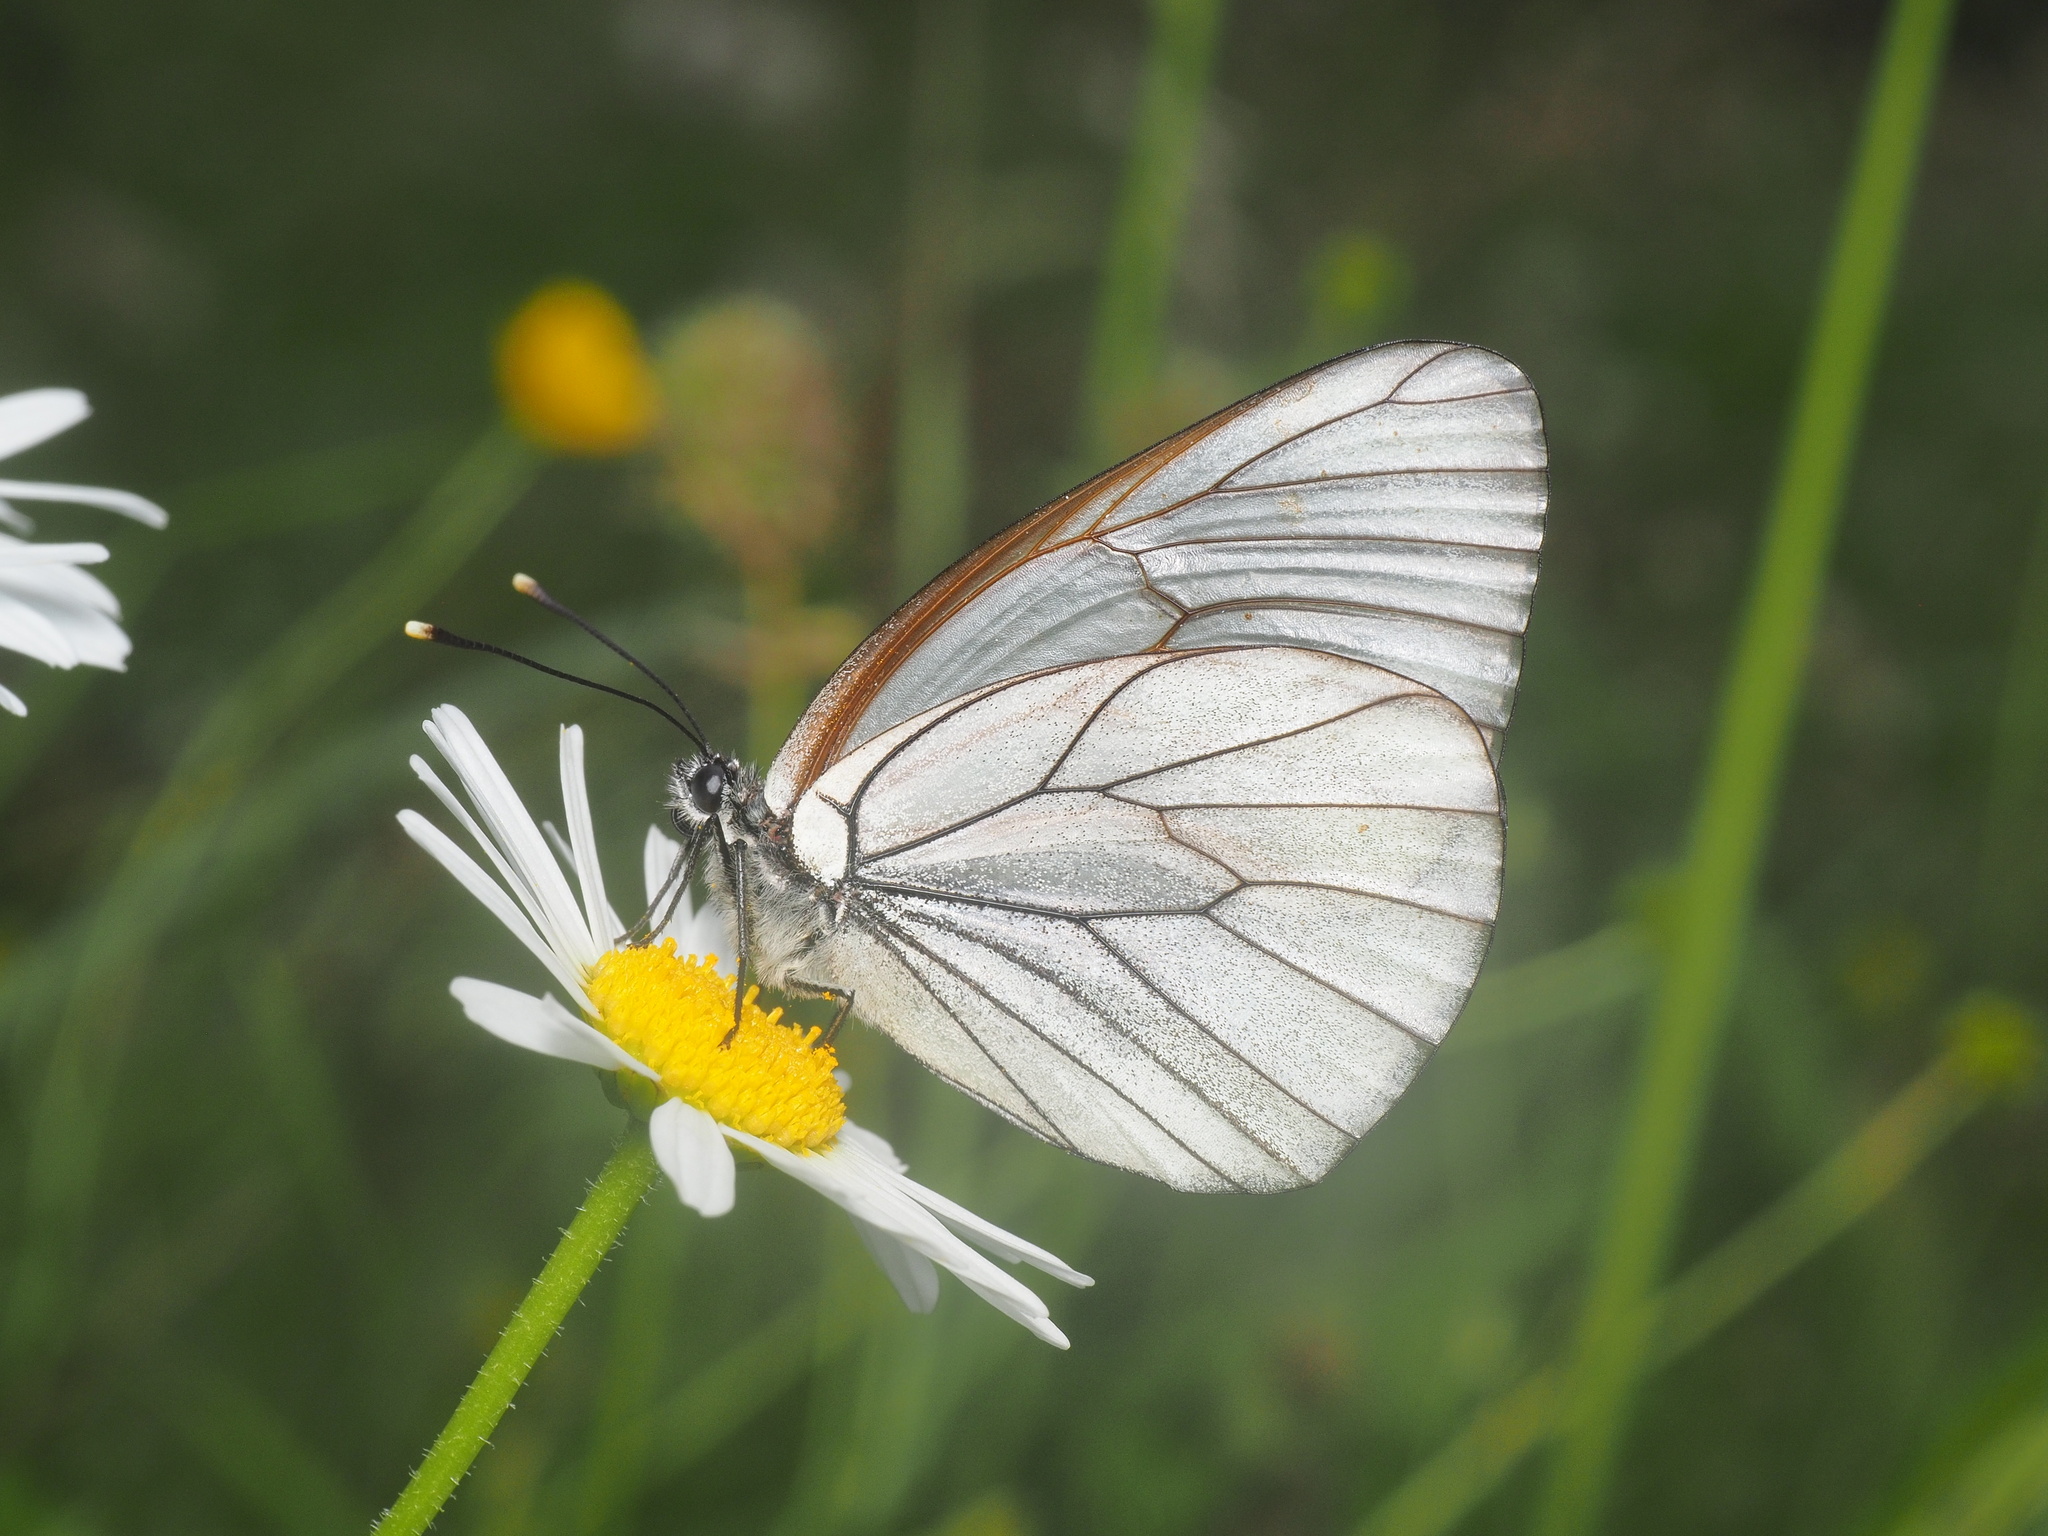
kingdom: Animalia
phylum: Arthropoda
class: Insecta
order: Lepidoptera
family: Pieridae
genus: Aporia
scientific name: Aporia crataegi
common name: Black-veined white
